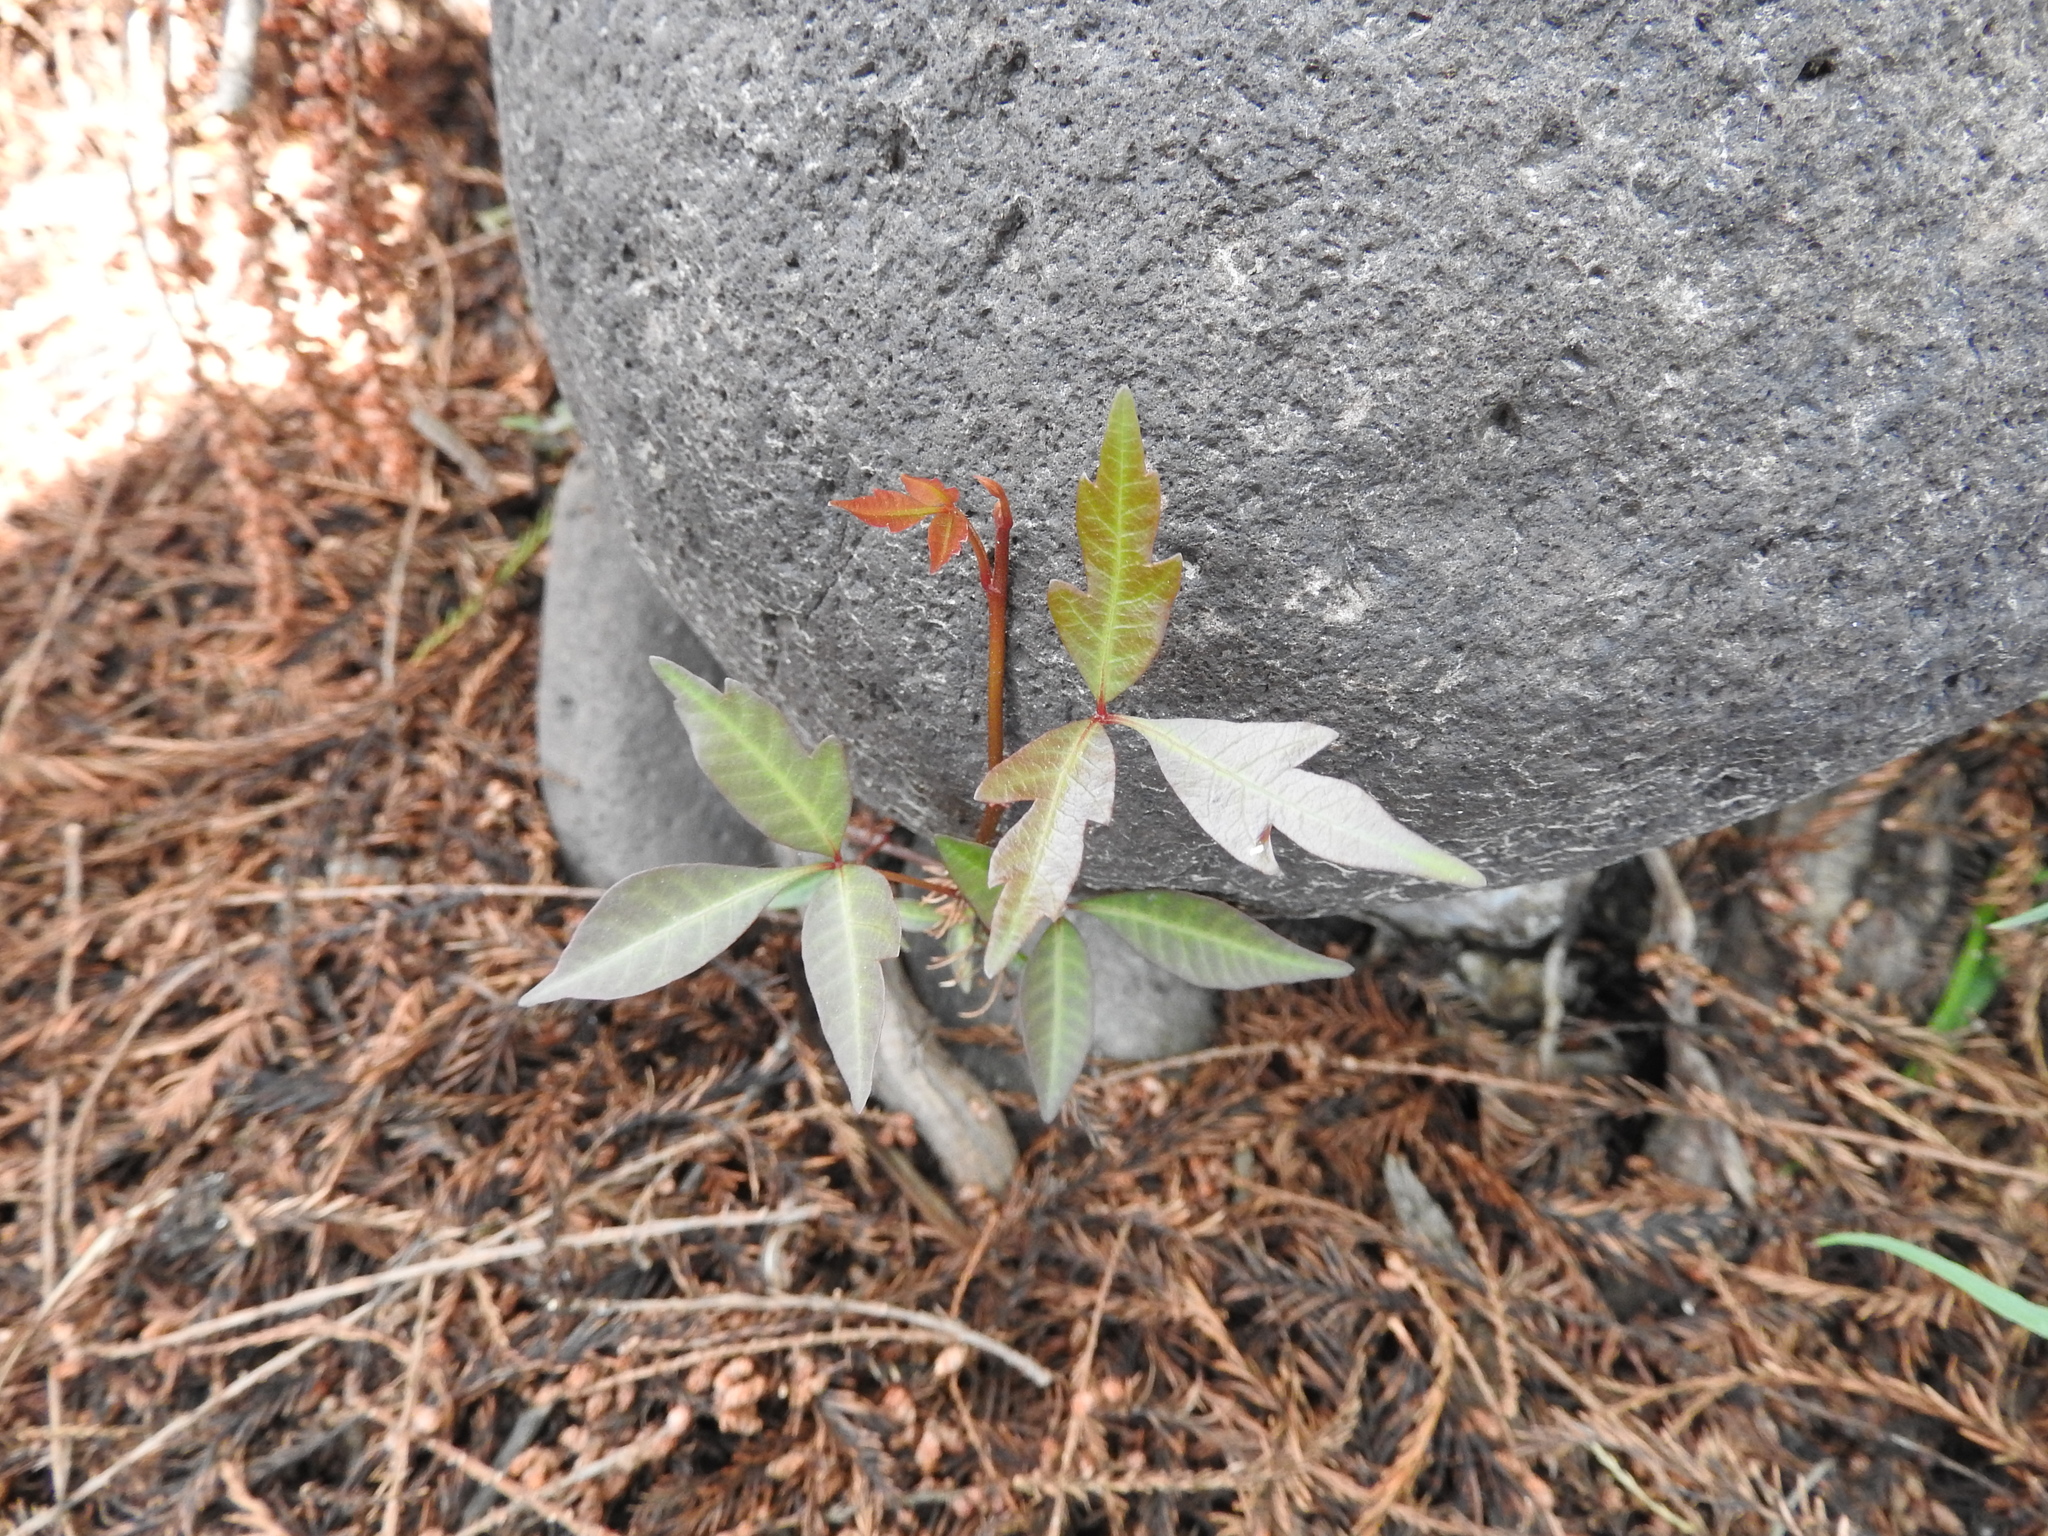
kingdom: Plantae
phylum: Tracheophyta
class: Magnoliopsida
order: Sapindales
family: Anacardiaceae
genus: Toxicodendron
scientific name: Toxicodendron radicans
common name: Poison ivy
